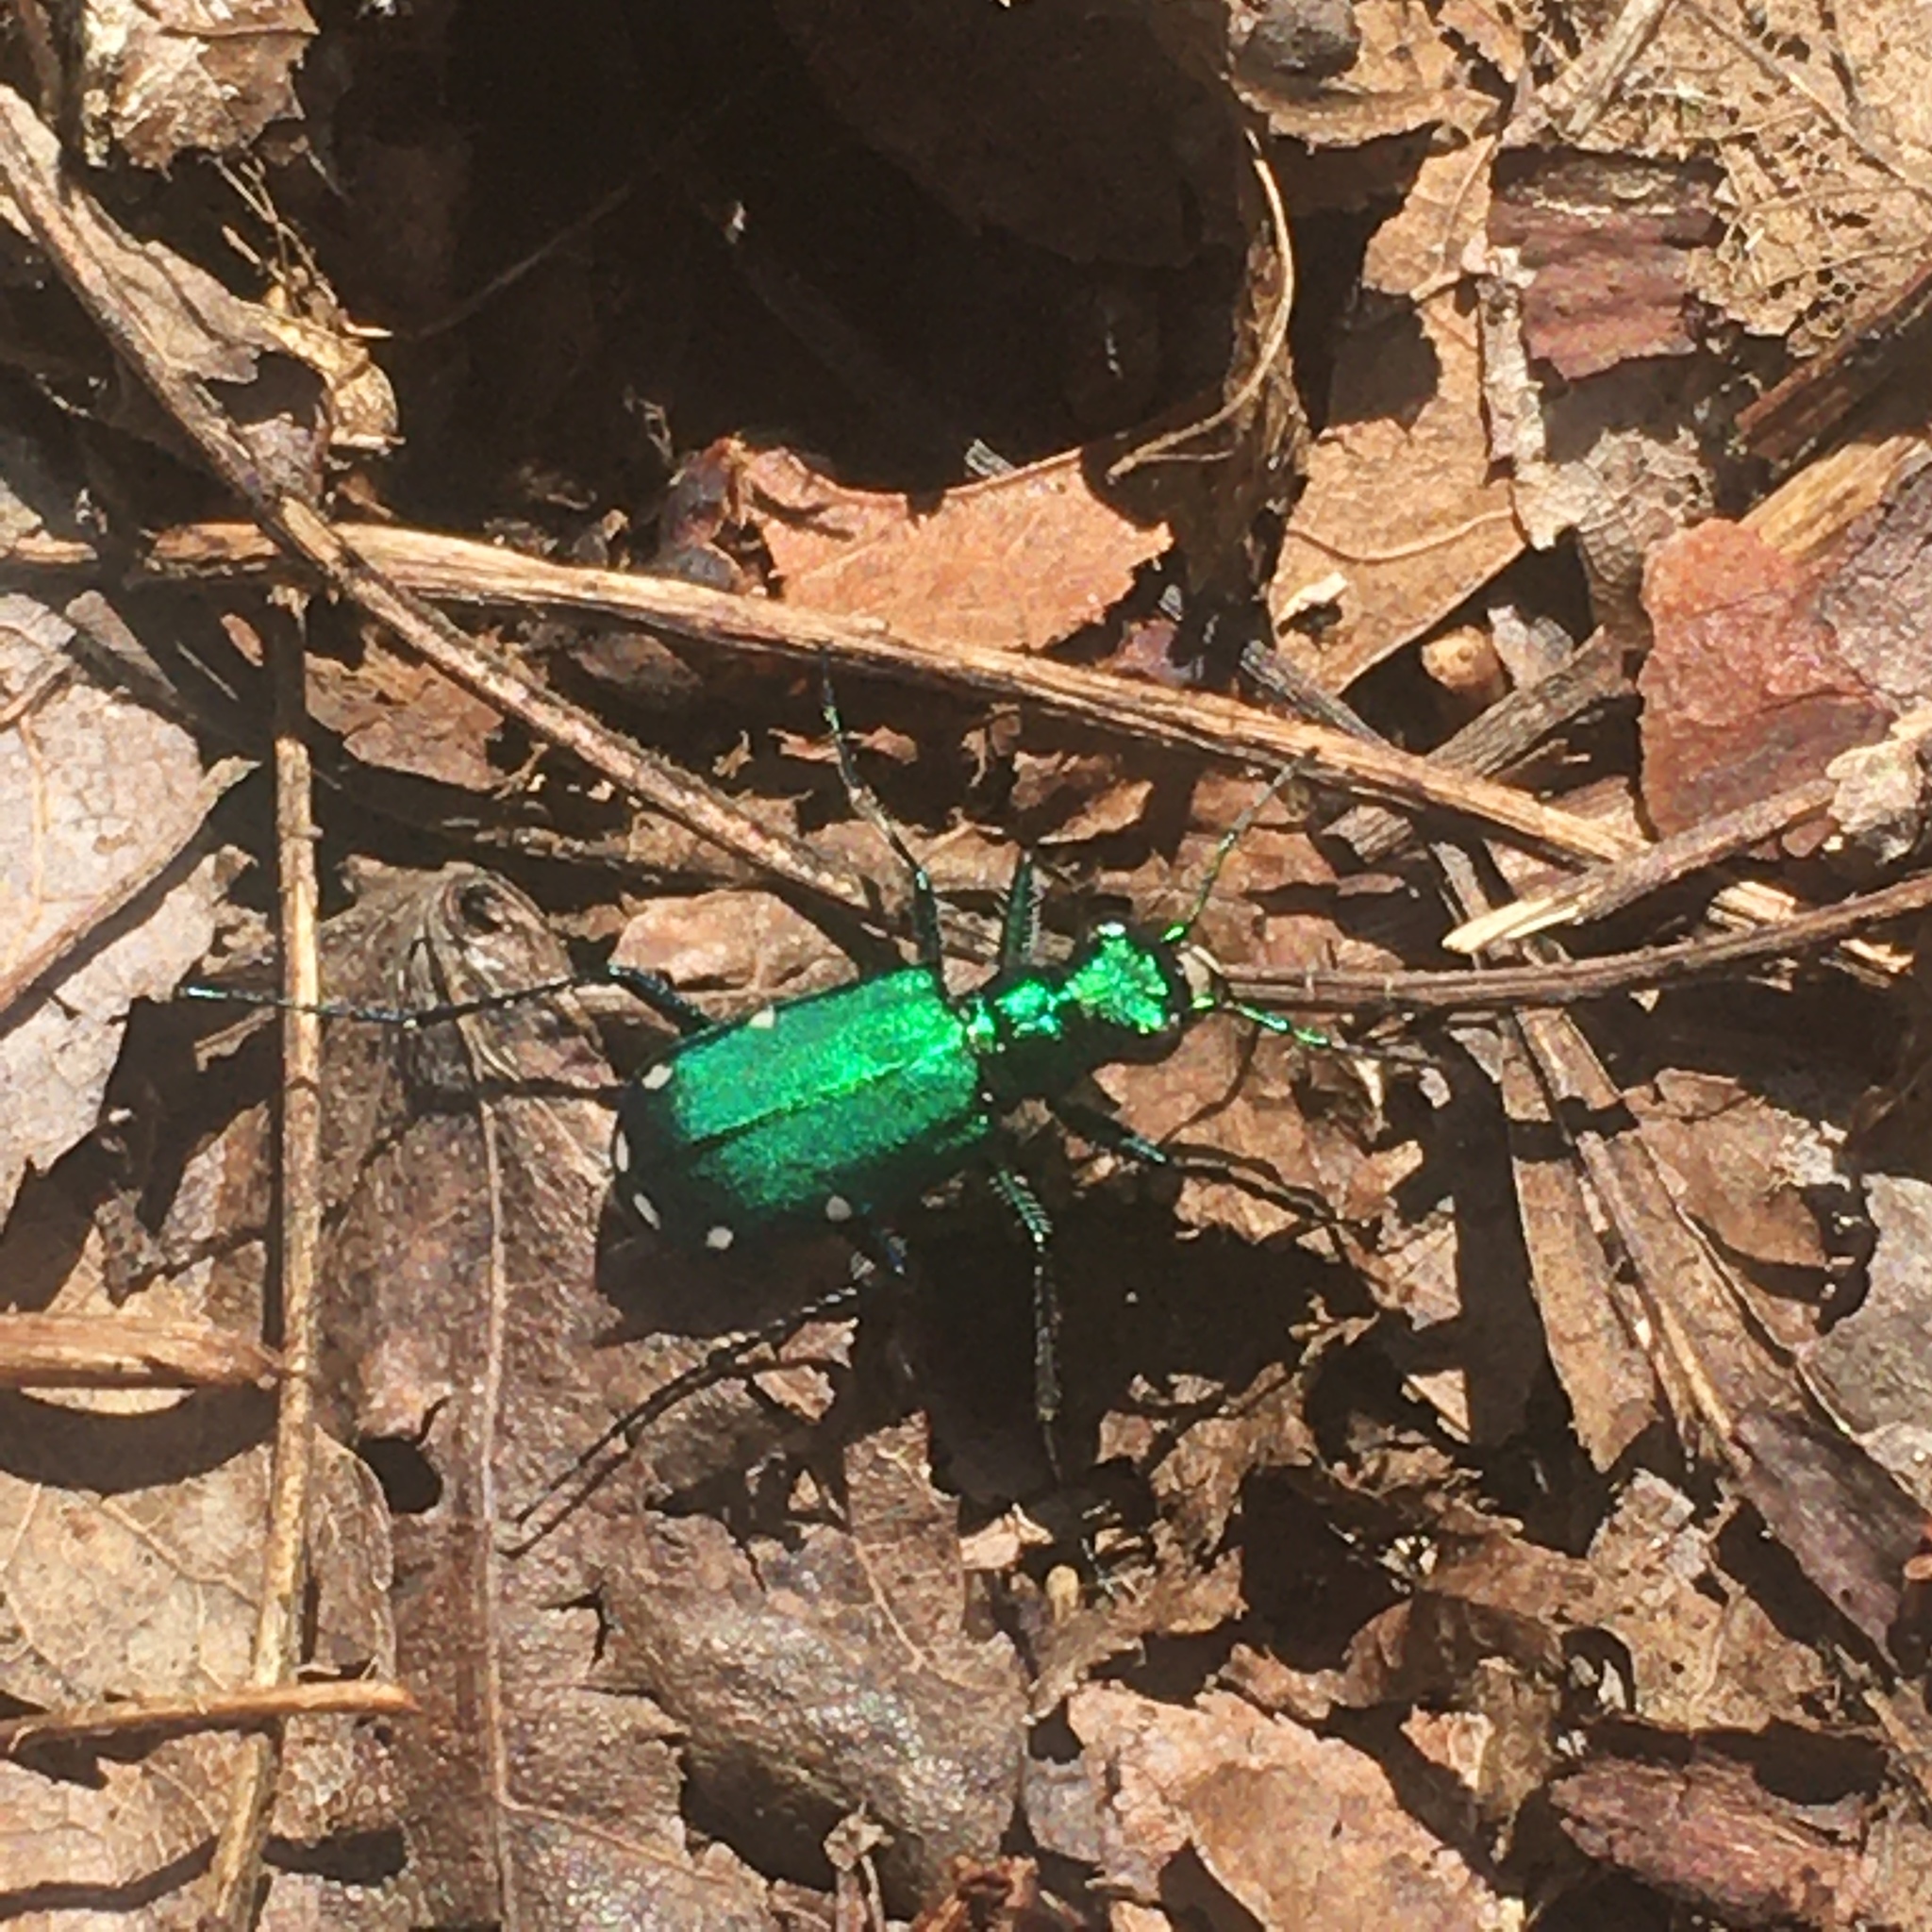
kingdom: Animalia
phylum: Arthropoda
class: Insecta
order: Coleoptera
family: Carabidae
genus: Cicindela
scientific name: Cicindela sexguttata
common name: Six-spotted tiger beetle
